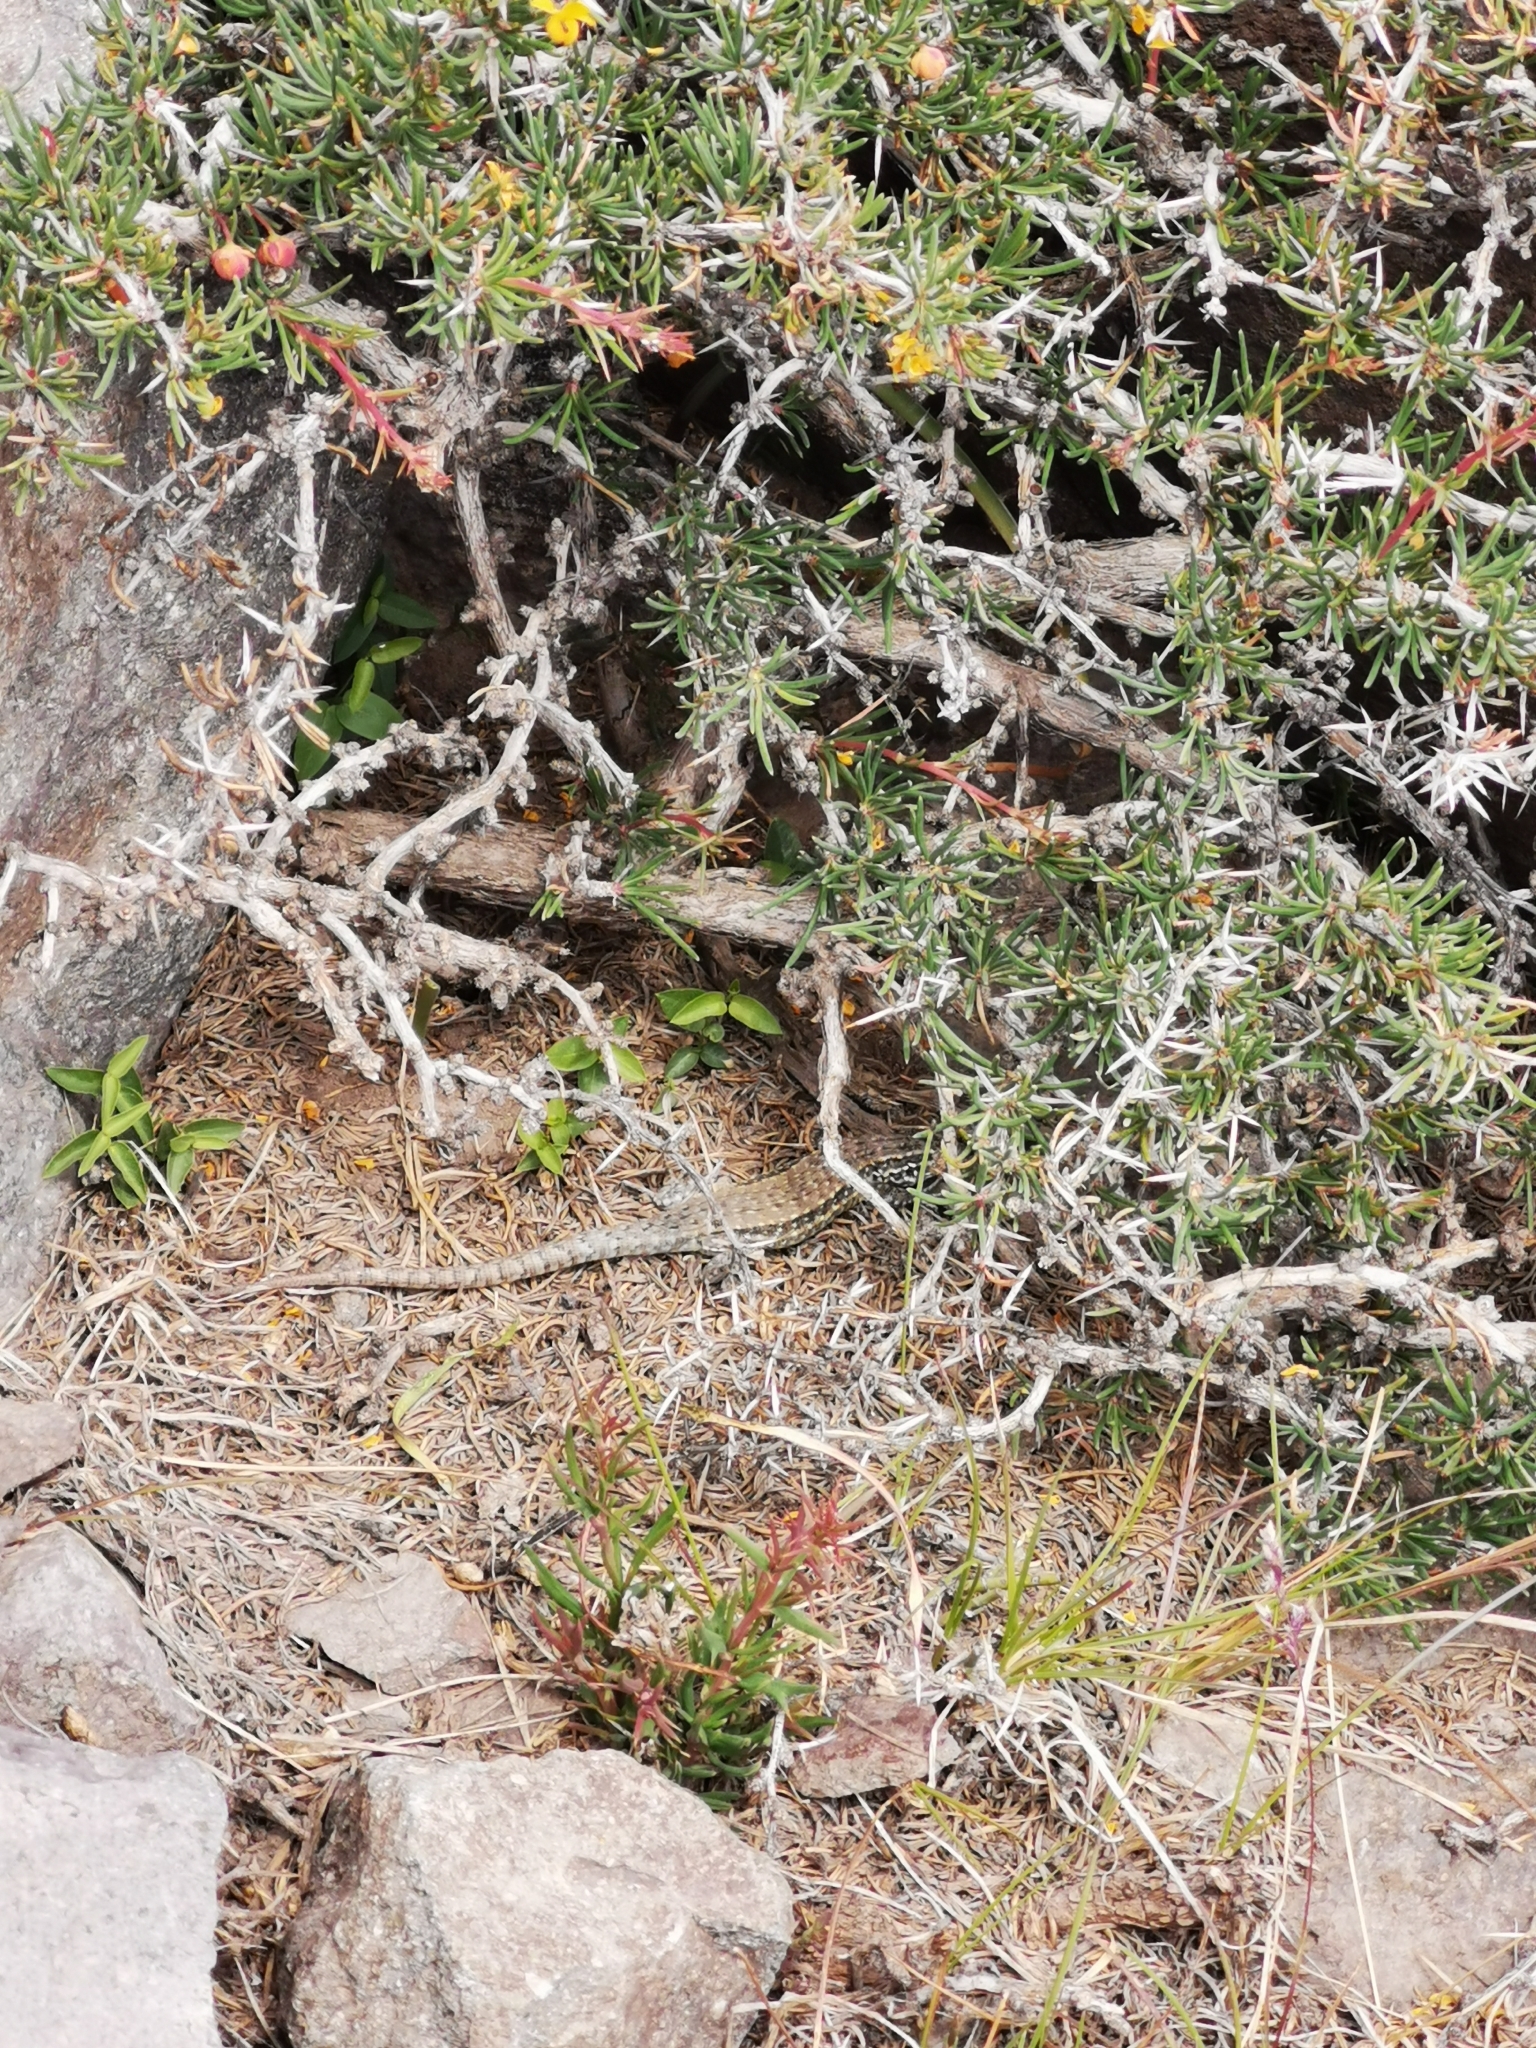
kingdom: Animalia
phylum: Chordata
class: Squamata
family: Liolaemidae
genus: Liolaemus
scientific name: Liolaemus nigroviridis
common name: Black-green tree iguana
